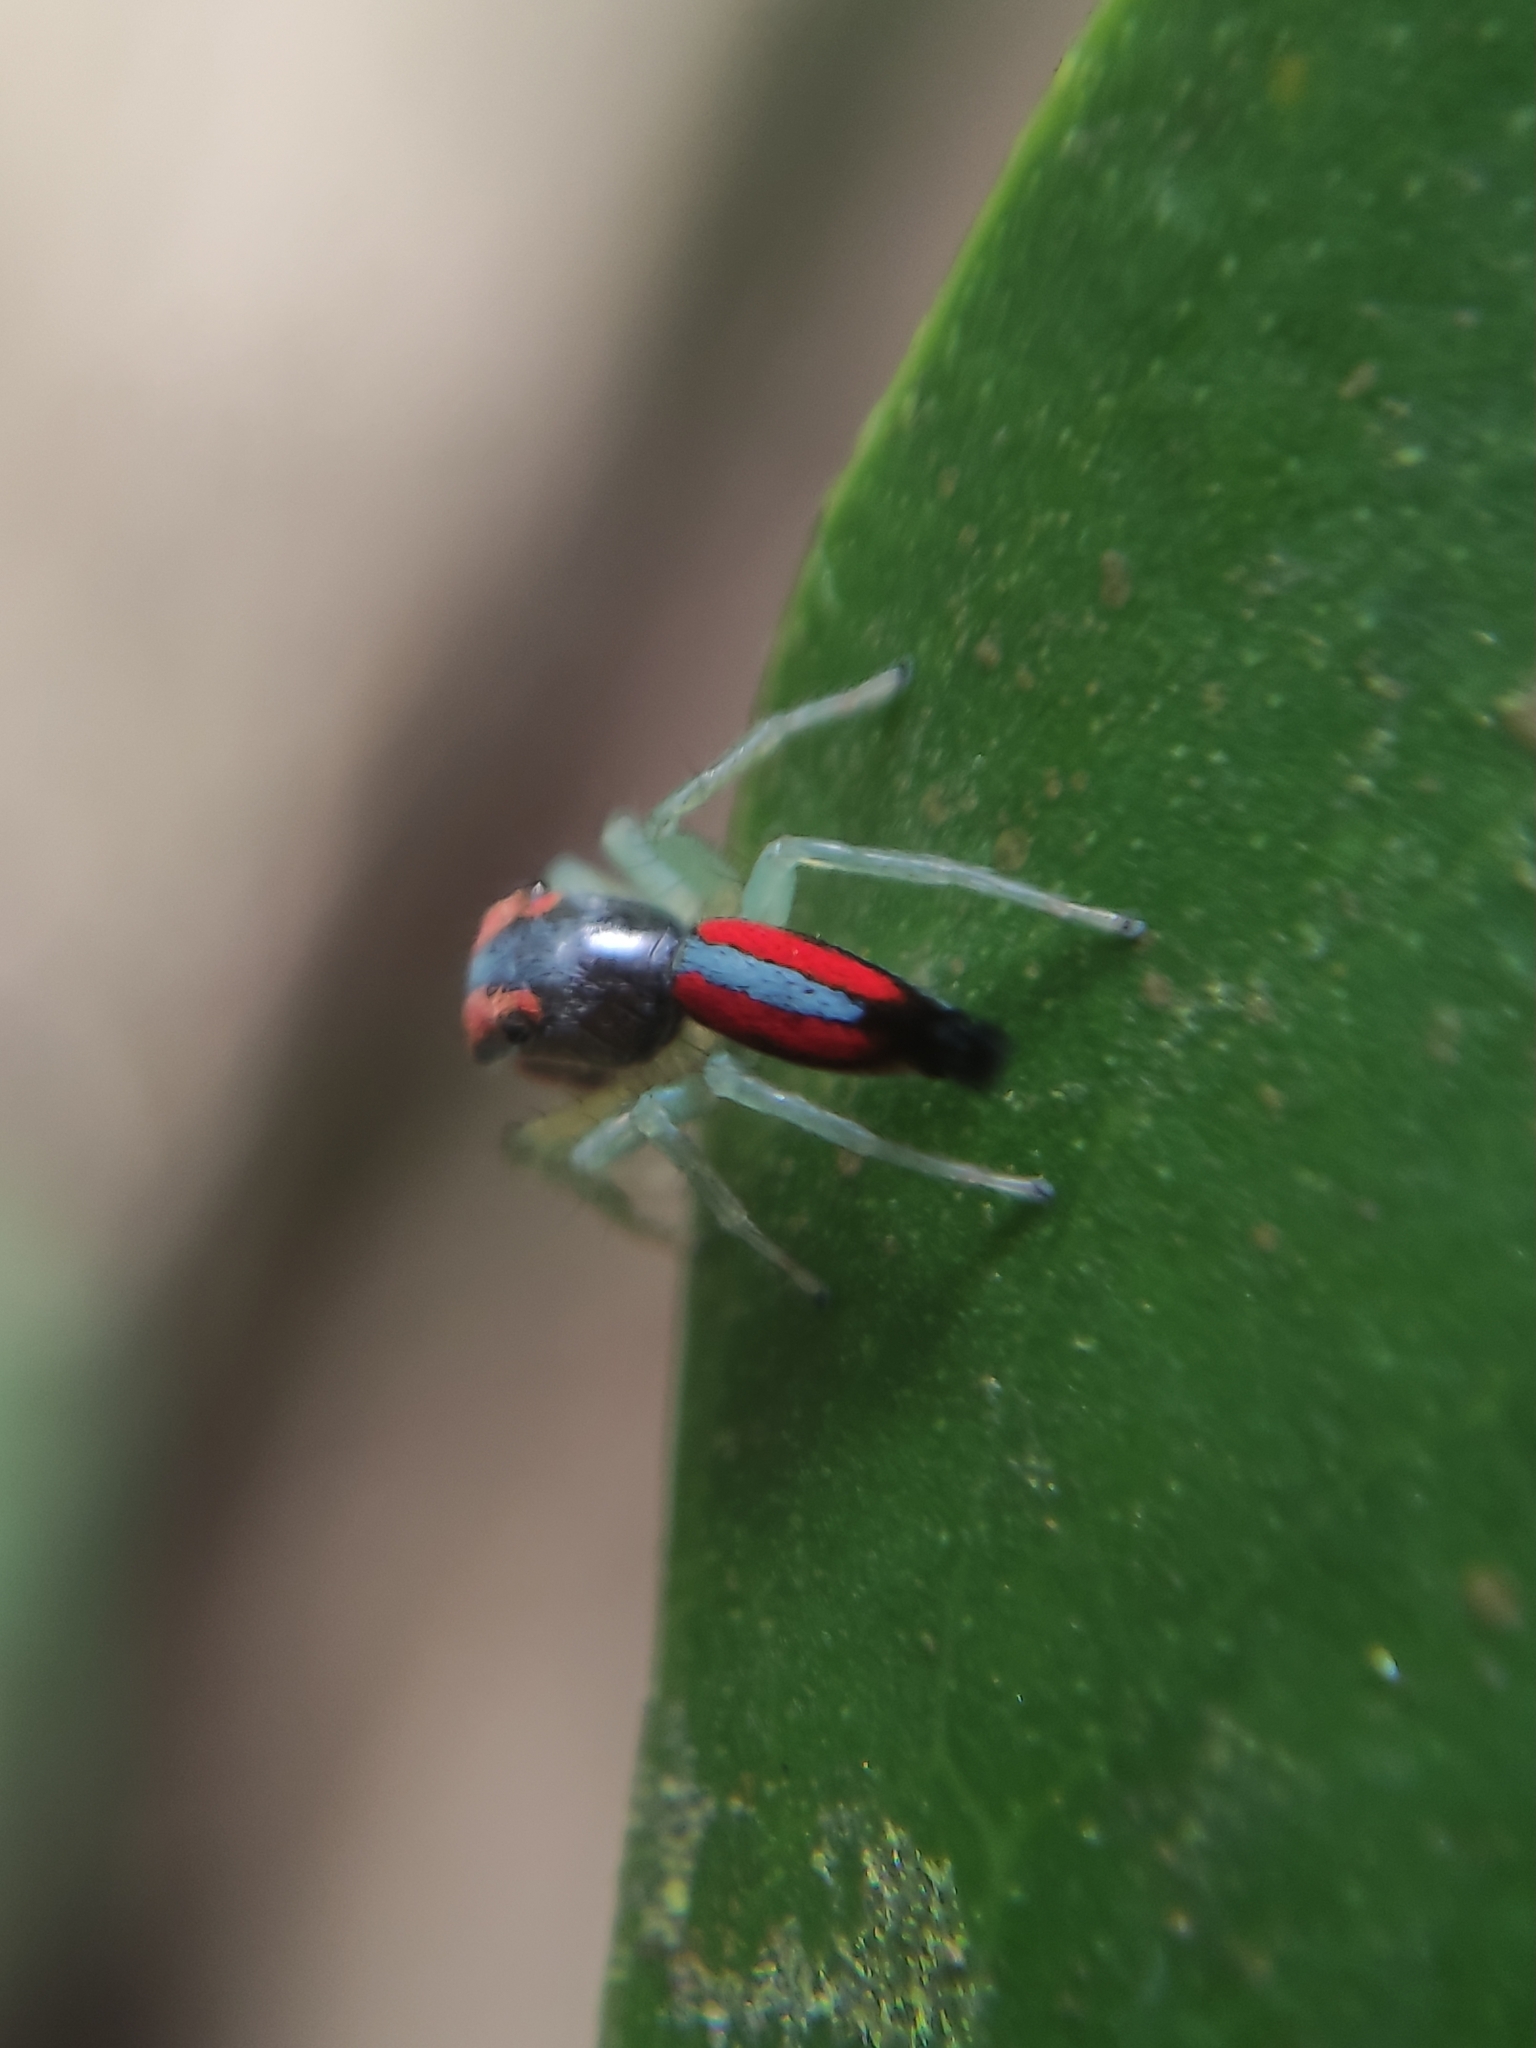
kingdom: Animalia
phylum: Arthropoda
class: Arachnida
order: Araneae
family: Salticidae
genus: Ilargus
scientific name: Ilargus coccineus
